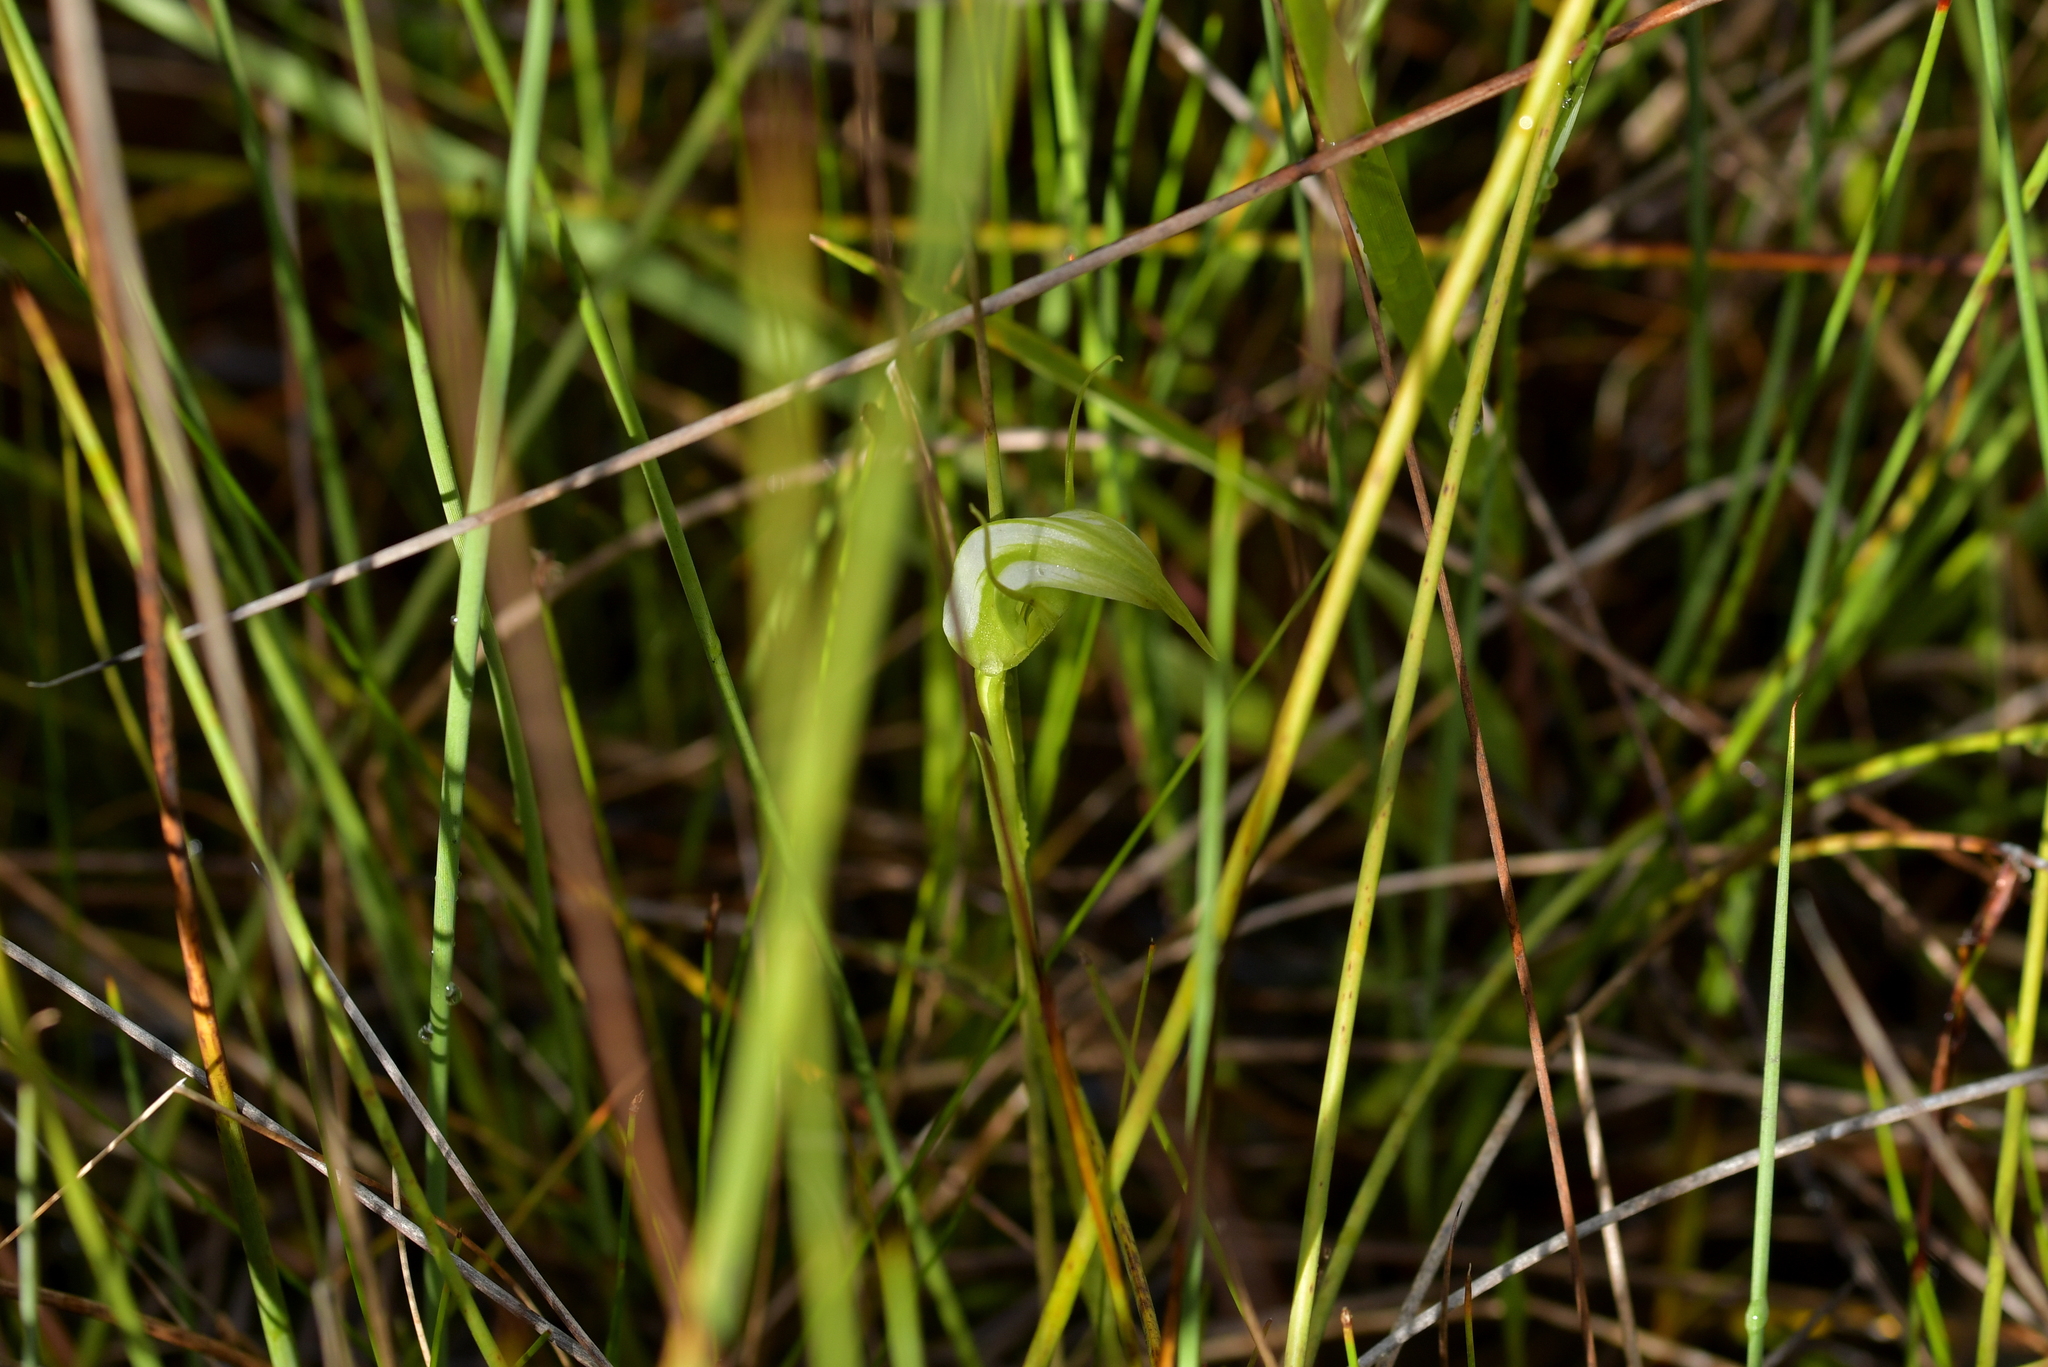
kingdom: Plantae
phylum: Tracheophyta
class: Liliopsida
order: Asparagales
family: Orchidaceae
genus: Pterostylis
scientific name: Pterostylis micromega
